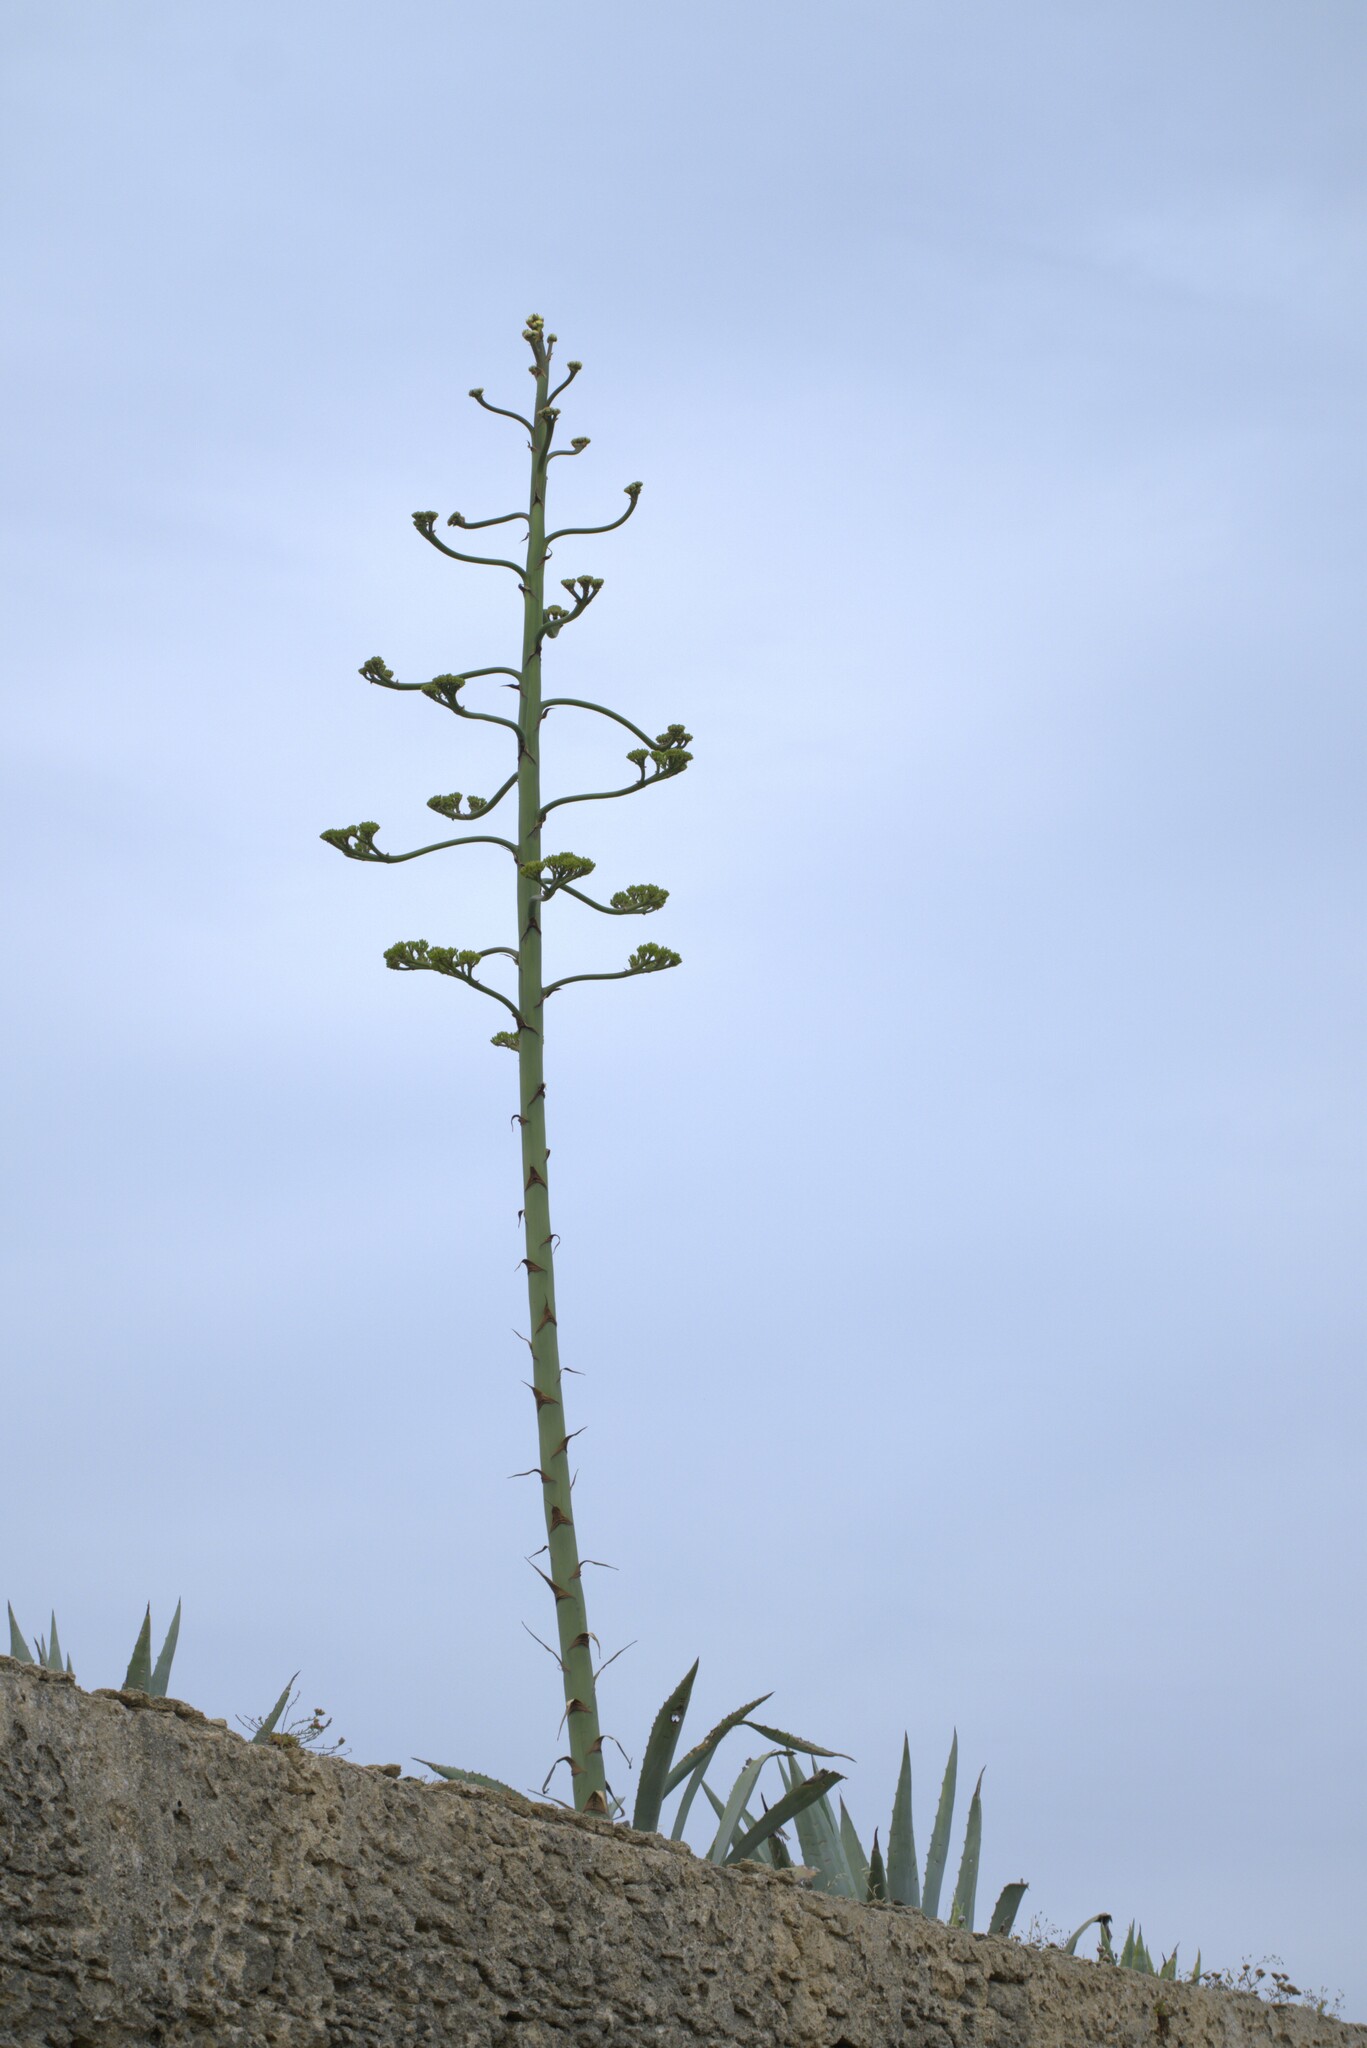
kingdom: Plantae
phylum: Tracheophyta
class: Liliopsida
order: Asparagales
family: Asparagaceae
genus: Agave
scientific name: Agave americana
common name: Centuryplant
